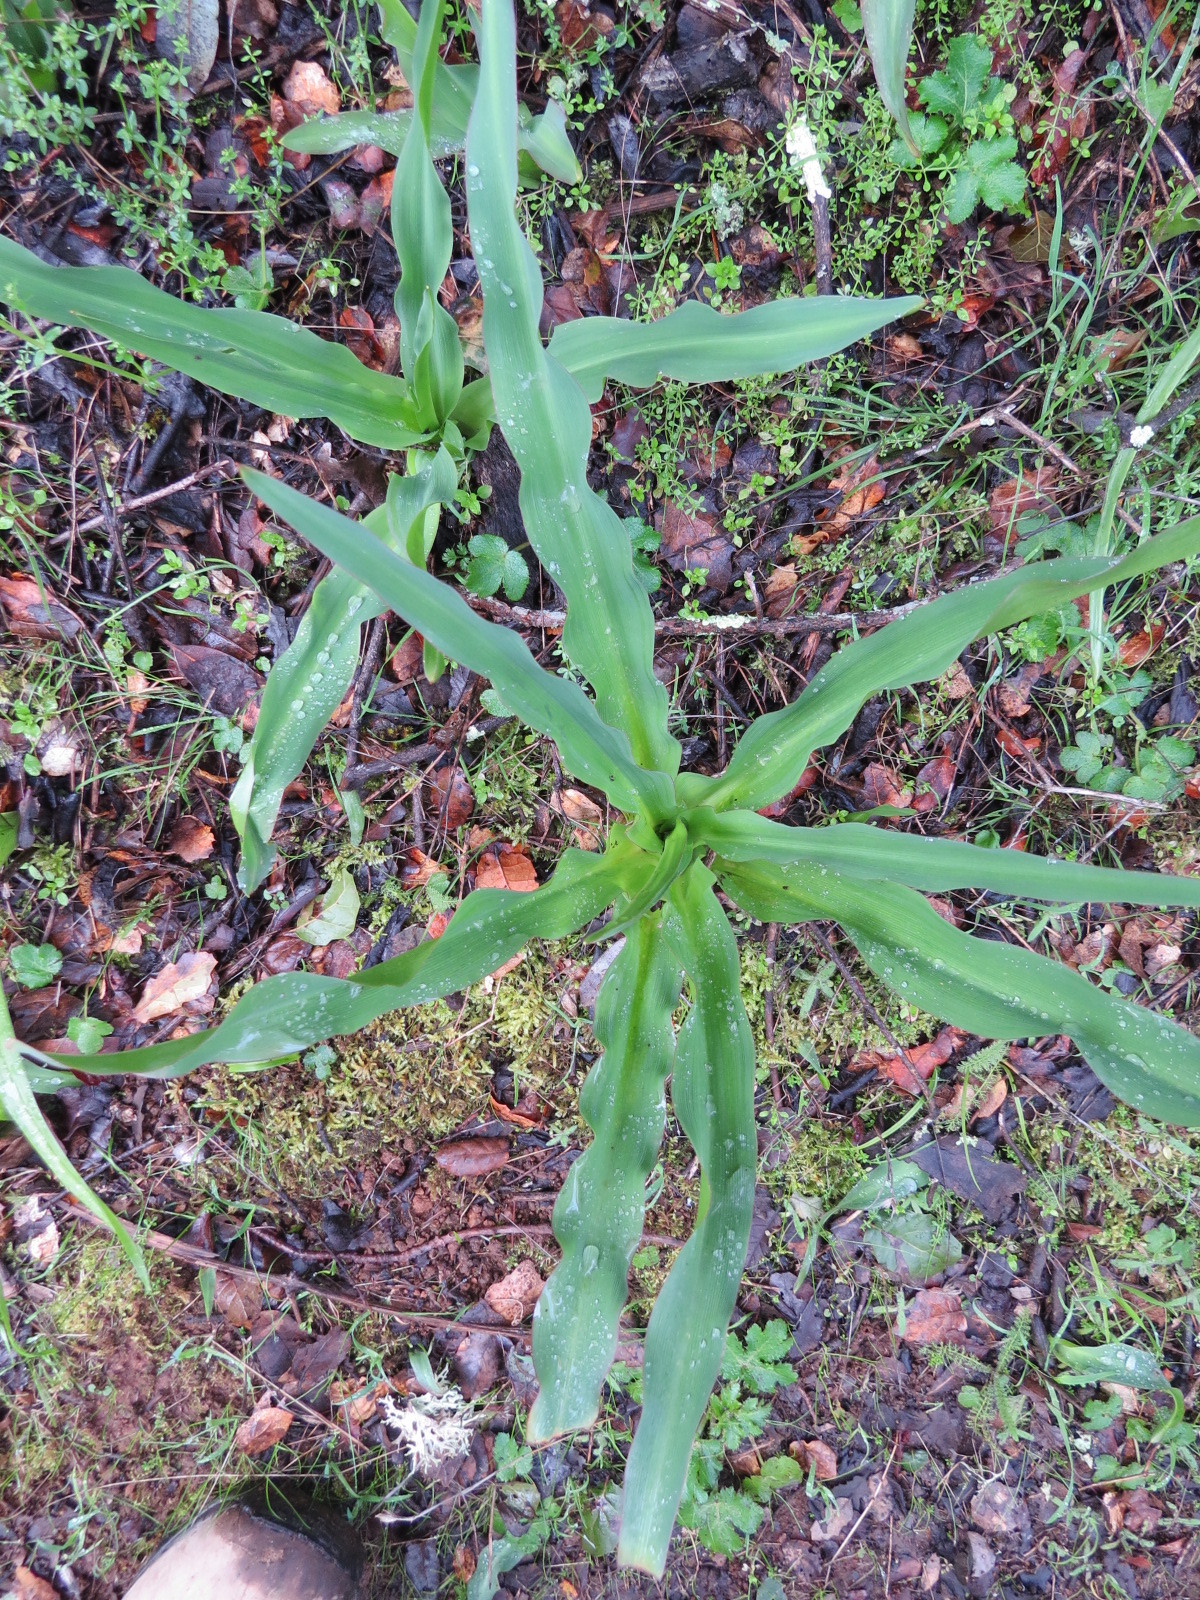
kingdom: Plantae
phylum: Tracheophyta
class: Liliopsida
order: Asparagales
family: Asparagaceae
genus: Chlorogalum
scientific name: Chlorogalum pomeridianum
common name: Amole
